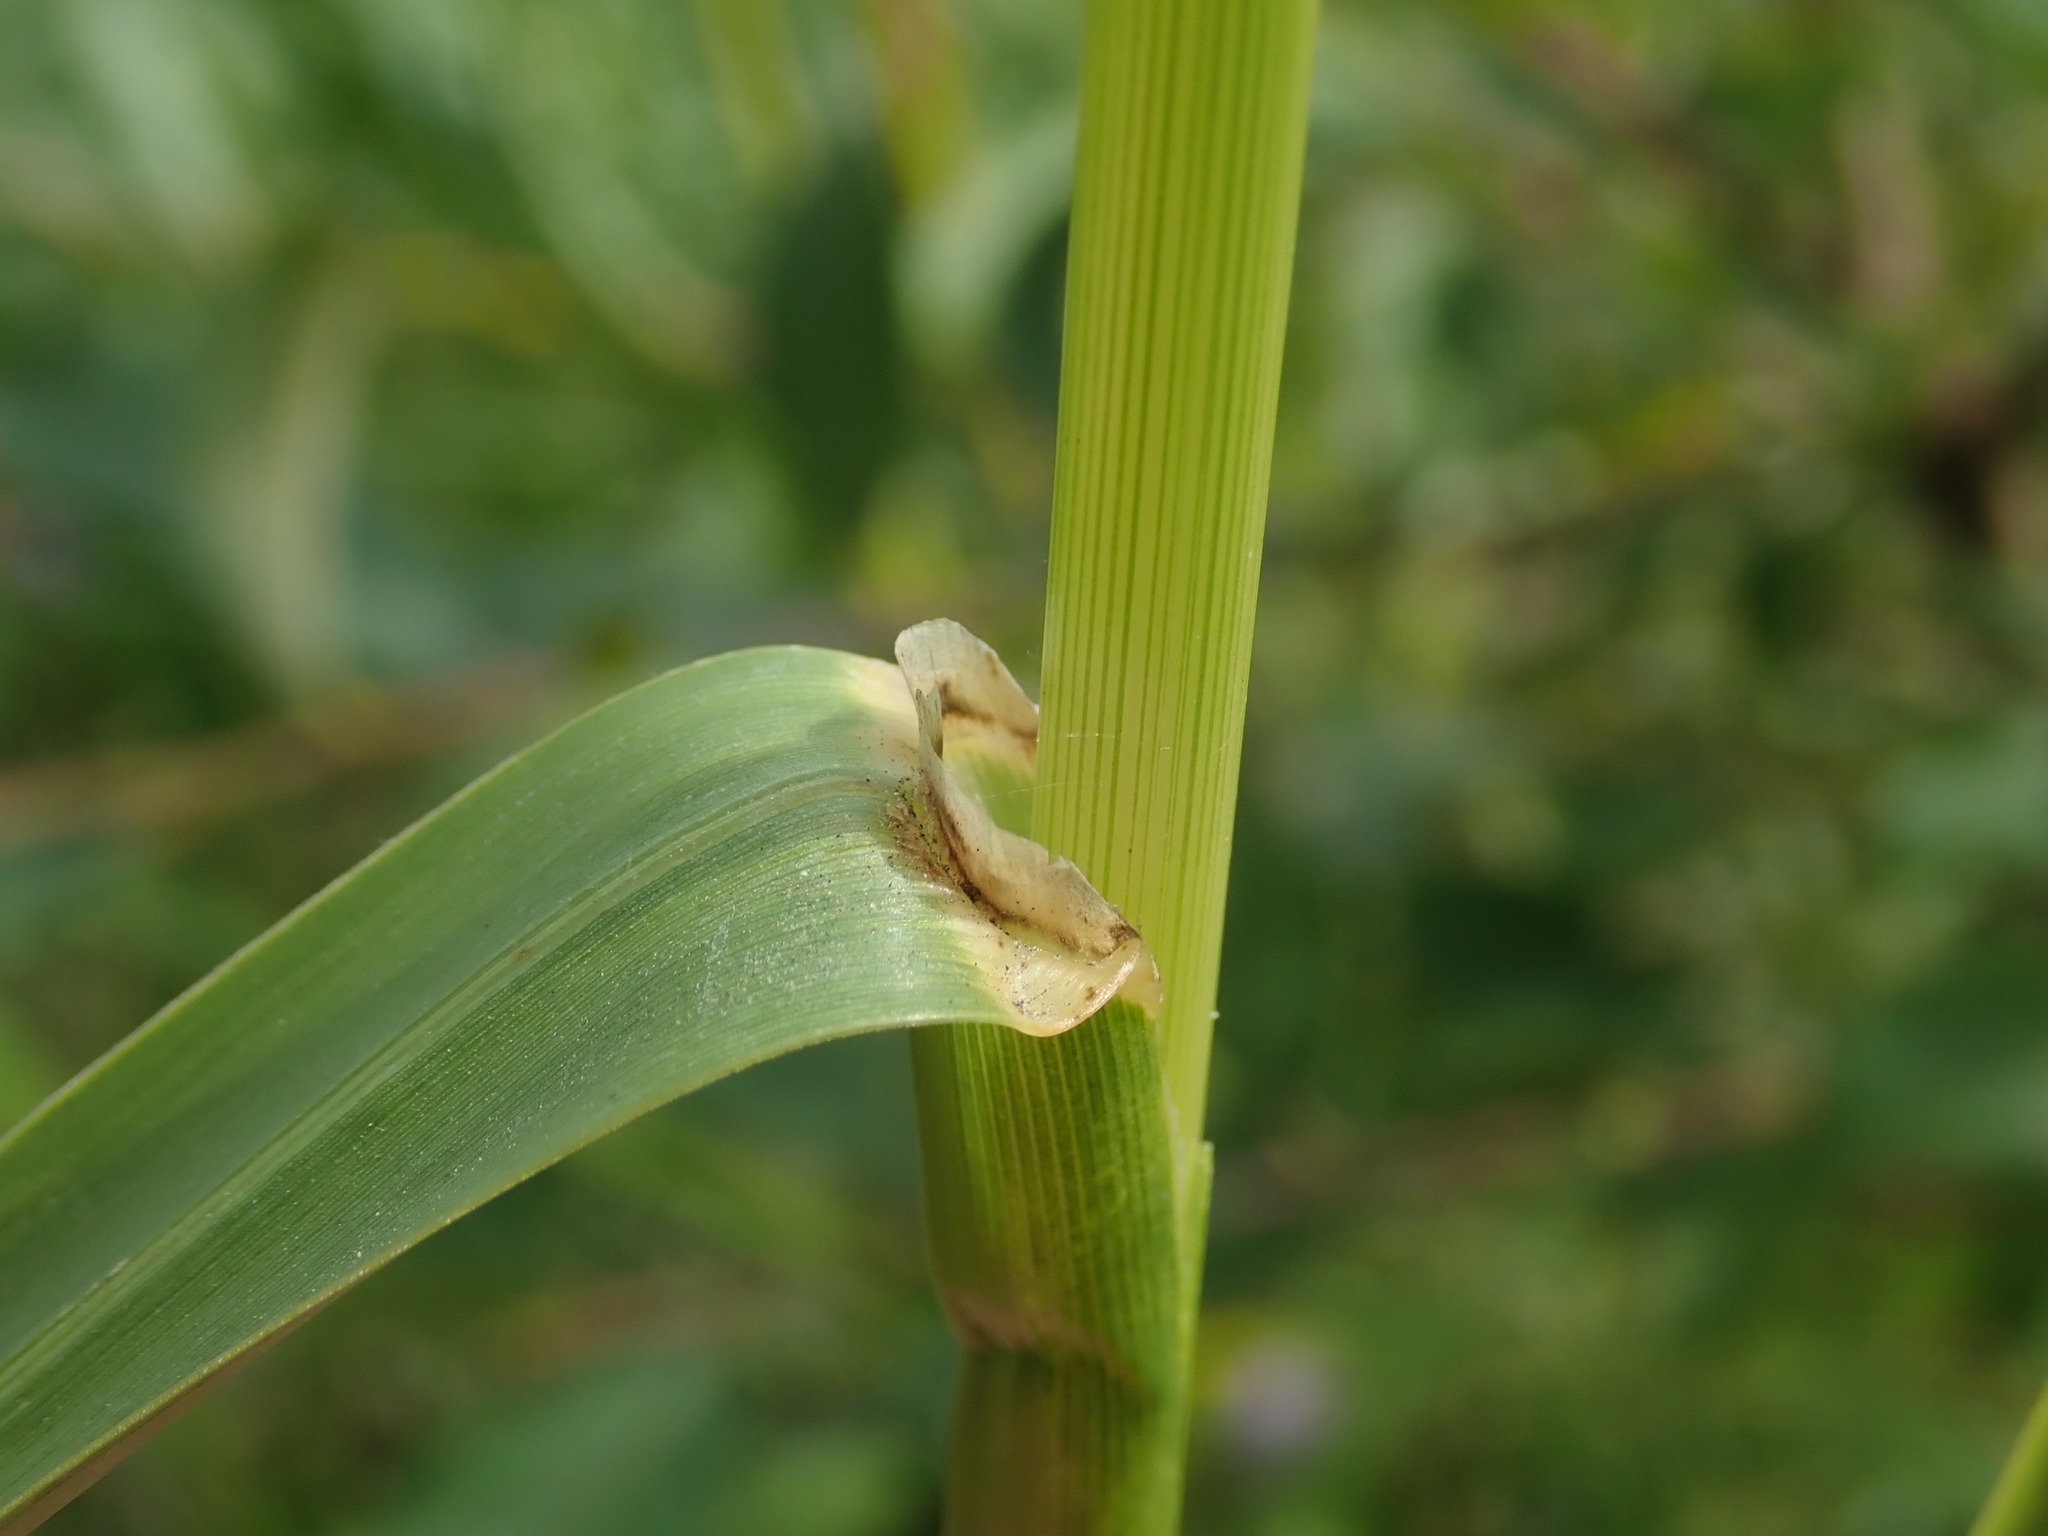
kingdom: Plantae
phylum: Tracheophyta
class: Liliopsida
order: Poales
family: Poaceae
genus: Glyceria
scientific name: Glyceria maxima
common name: Reed mannagrass
